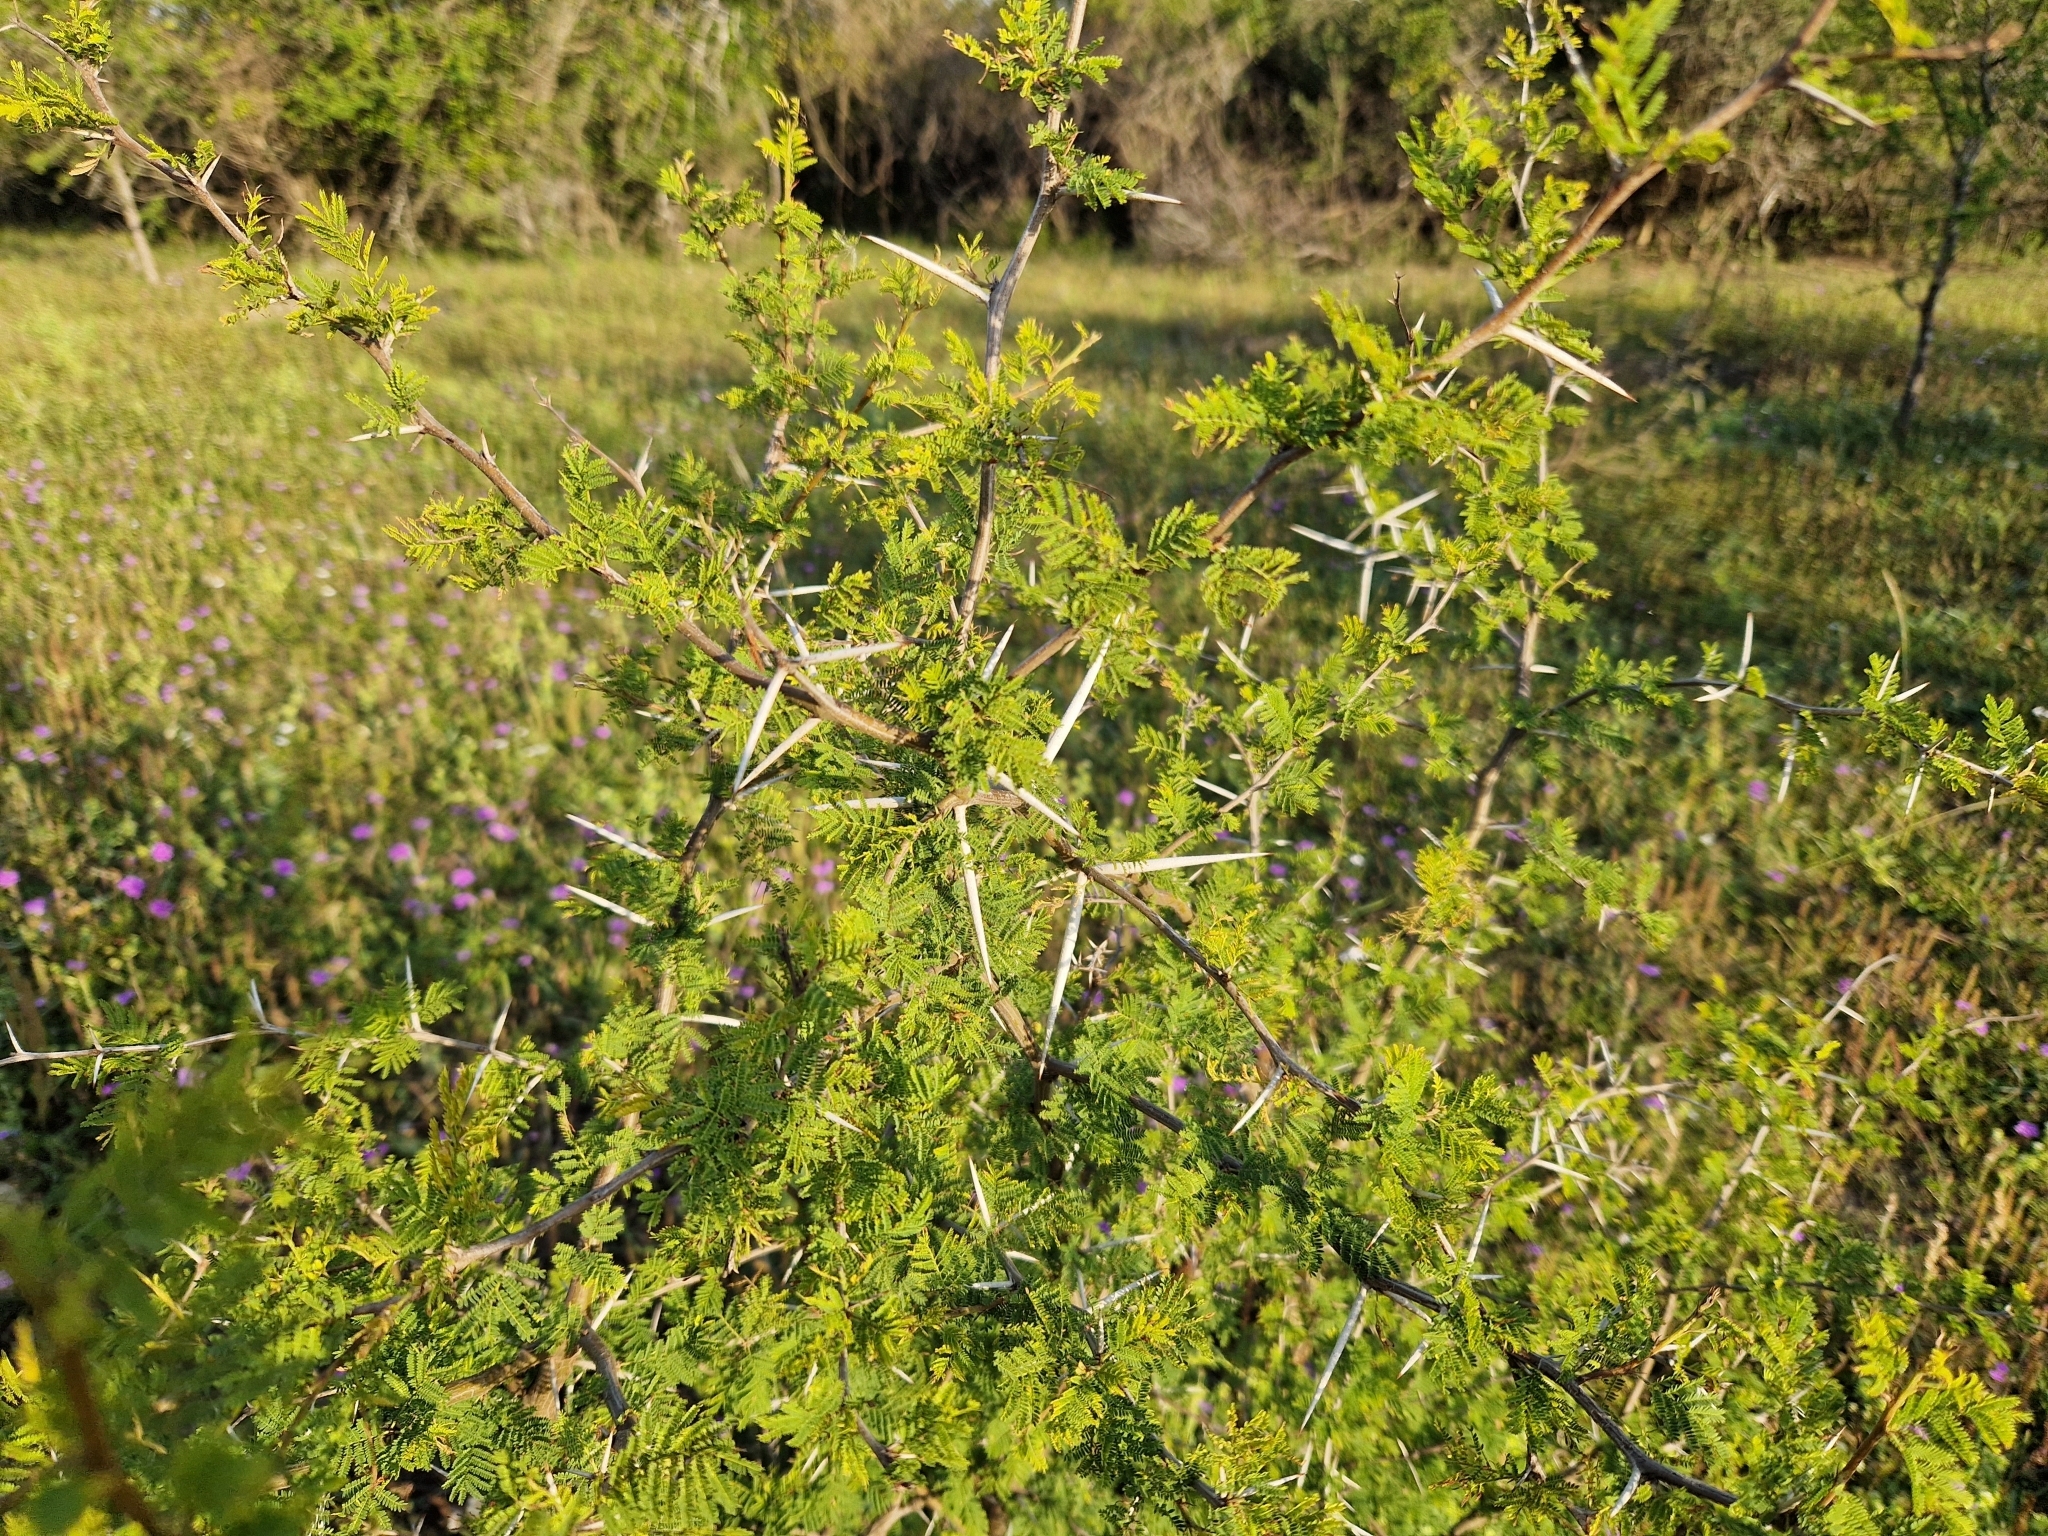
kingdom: Plantae
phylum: Tracheophyta
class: Magnoliopsida
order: Fabales
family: Fabaceae
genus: Vachellia
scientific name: Vachellia caven
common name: Roman cassie
